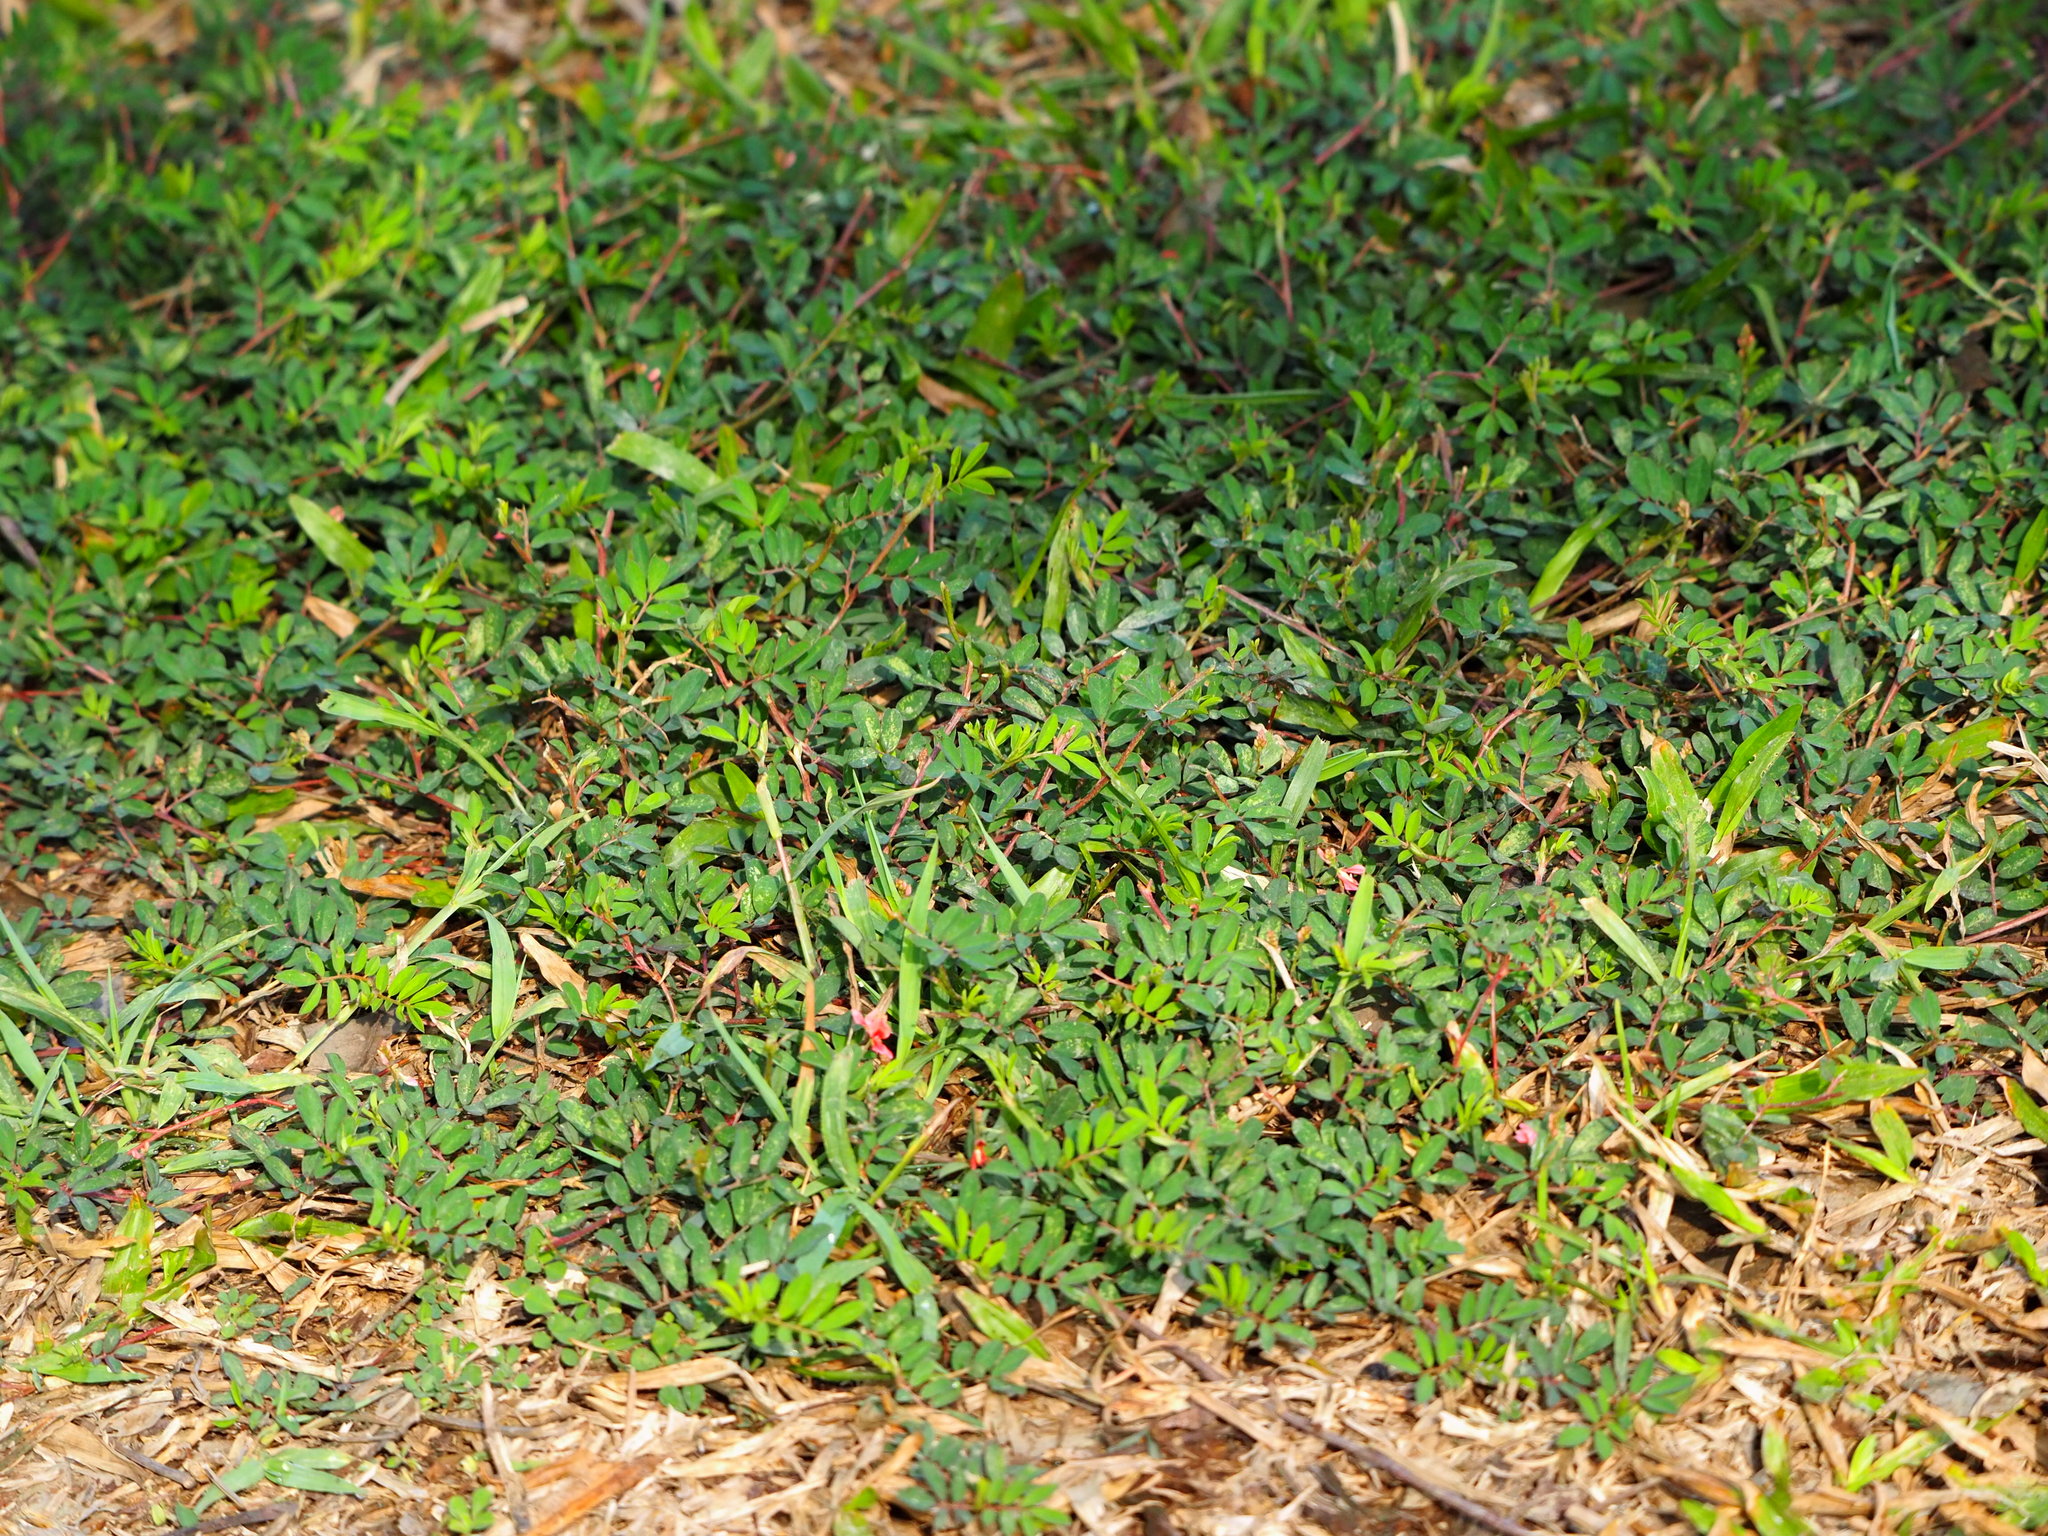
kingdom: Plantae
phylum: Tracheophyta
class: Magnoliopsida
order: Fabales
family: Fabaceae
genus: Indigofera
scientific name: Indigofera spicata
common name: Creeping indigo
